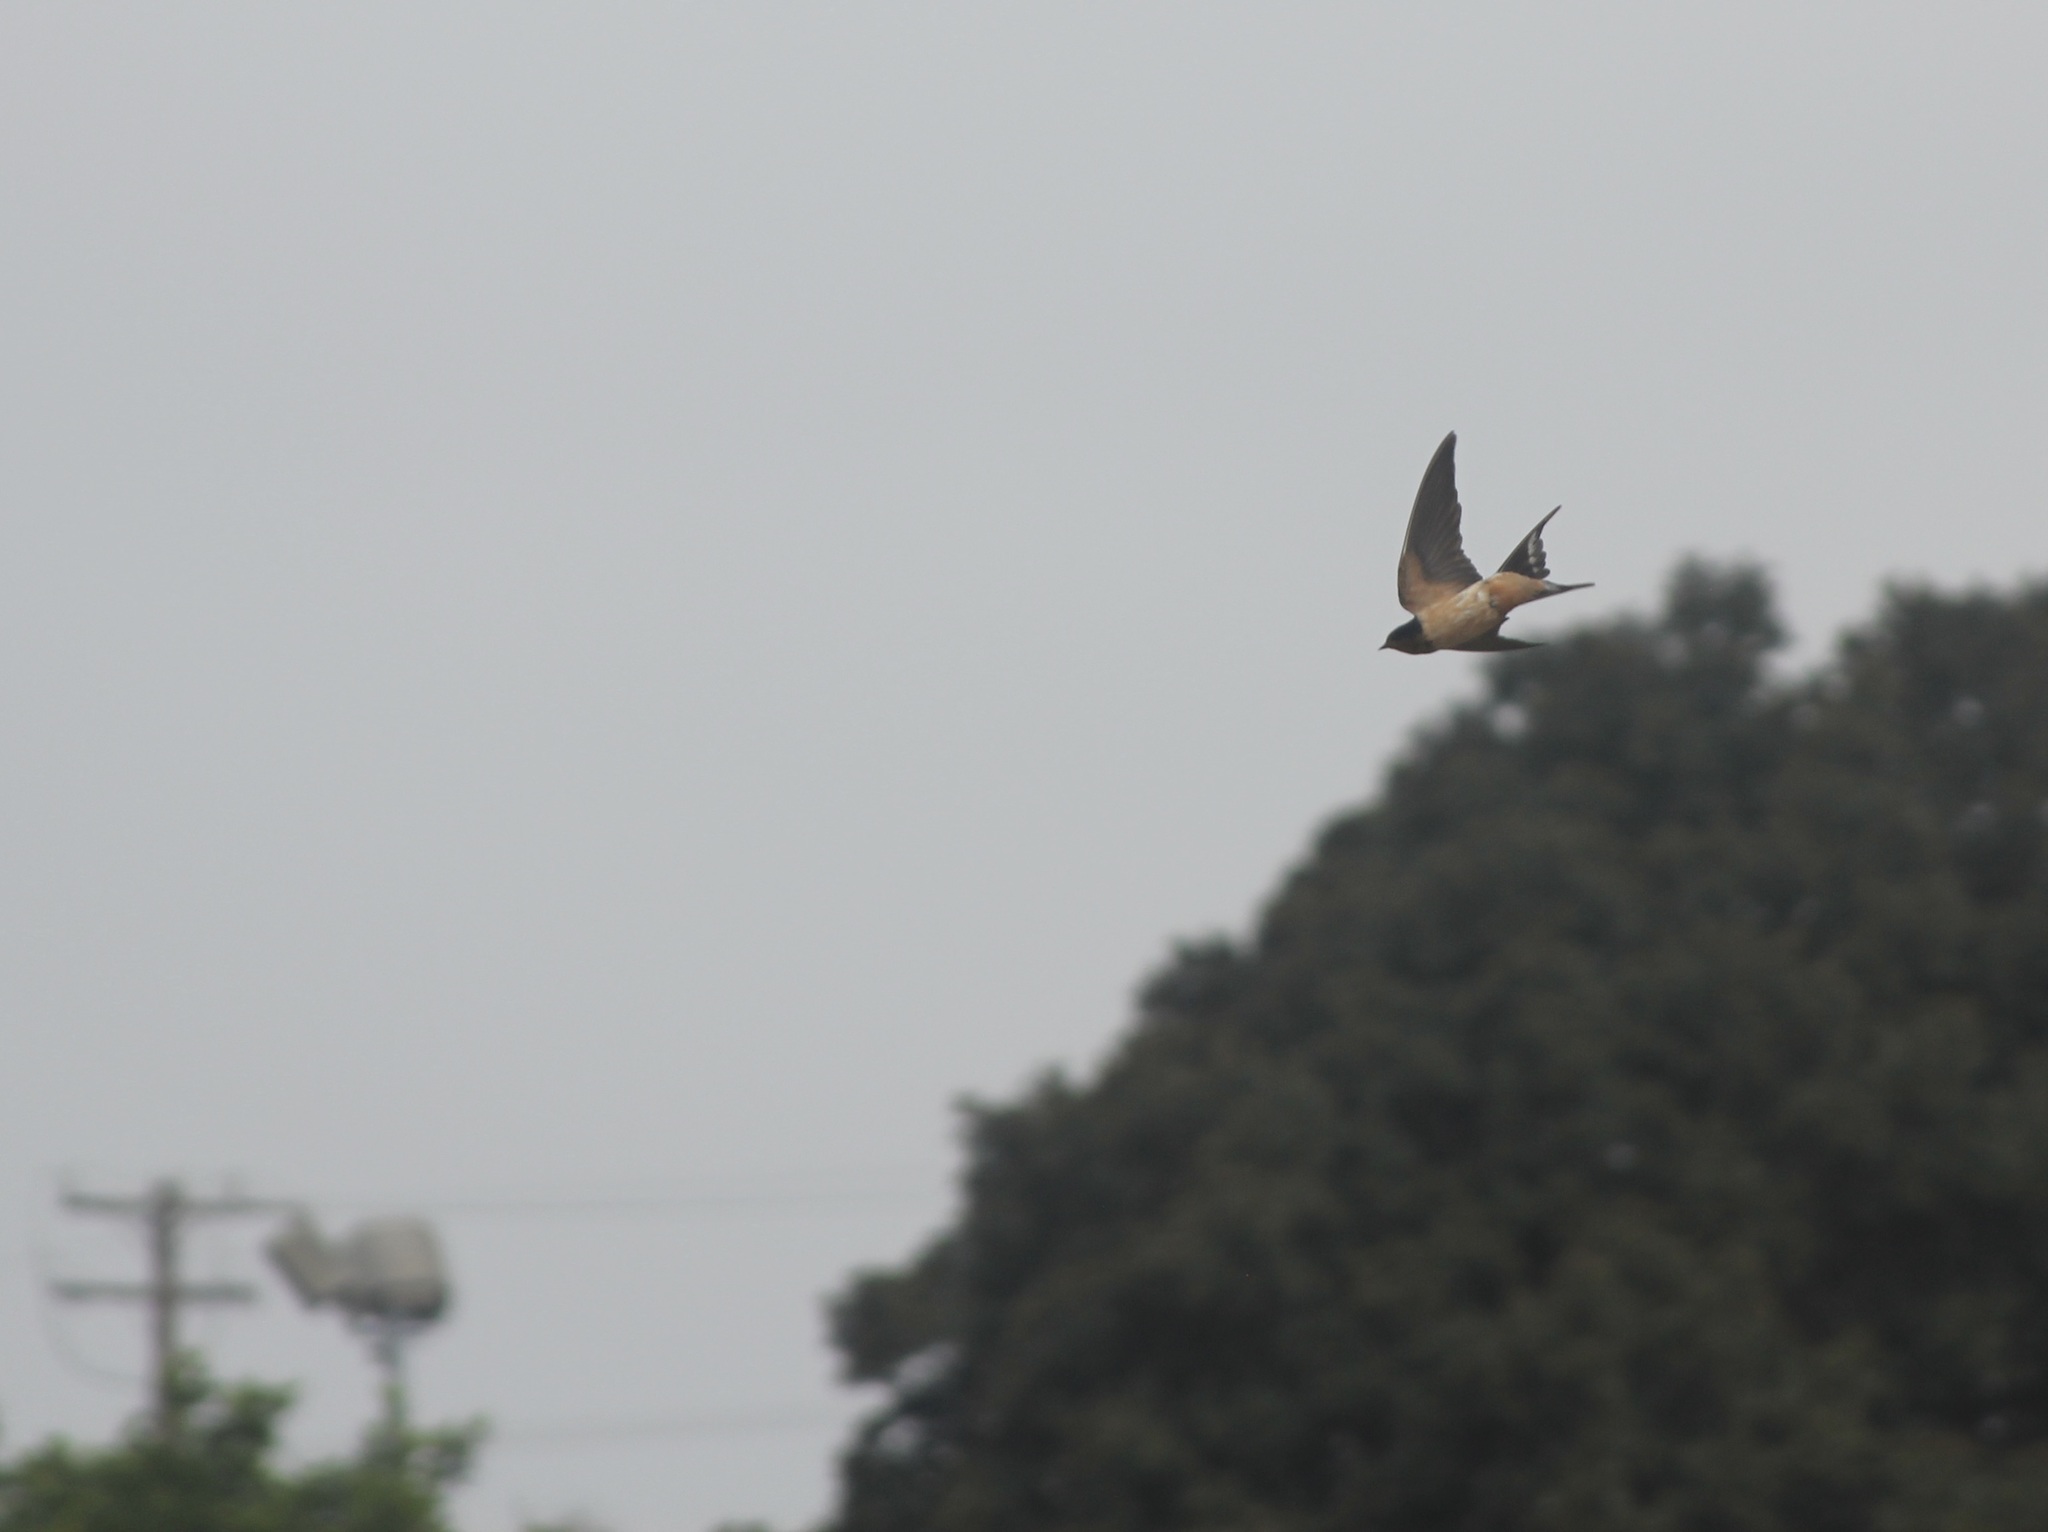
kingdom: Animalia
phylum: Chordata
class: Aves
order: Passeriformes
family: Hirundinidae
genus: Hirundo
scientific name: Hirundo rustica
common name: Barn swallow
